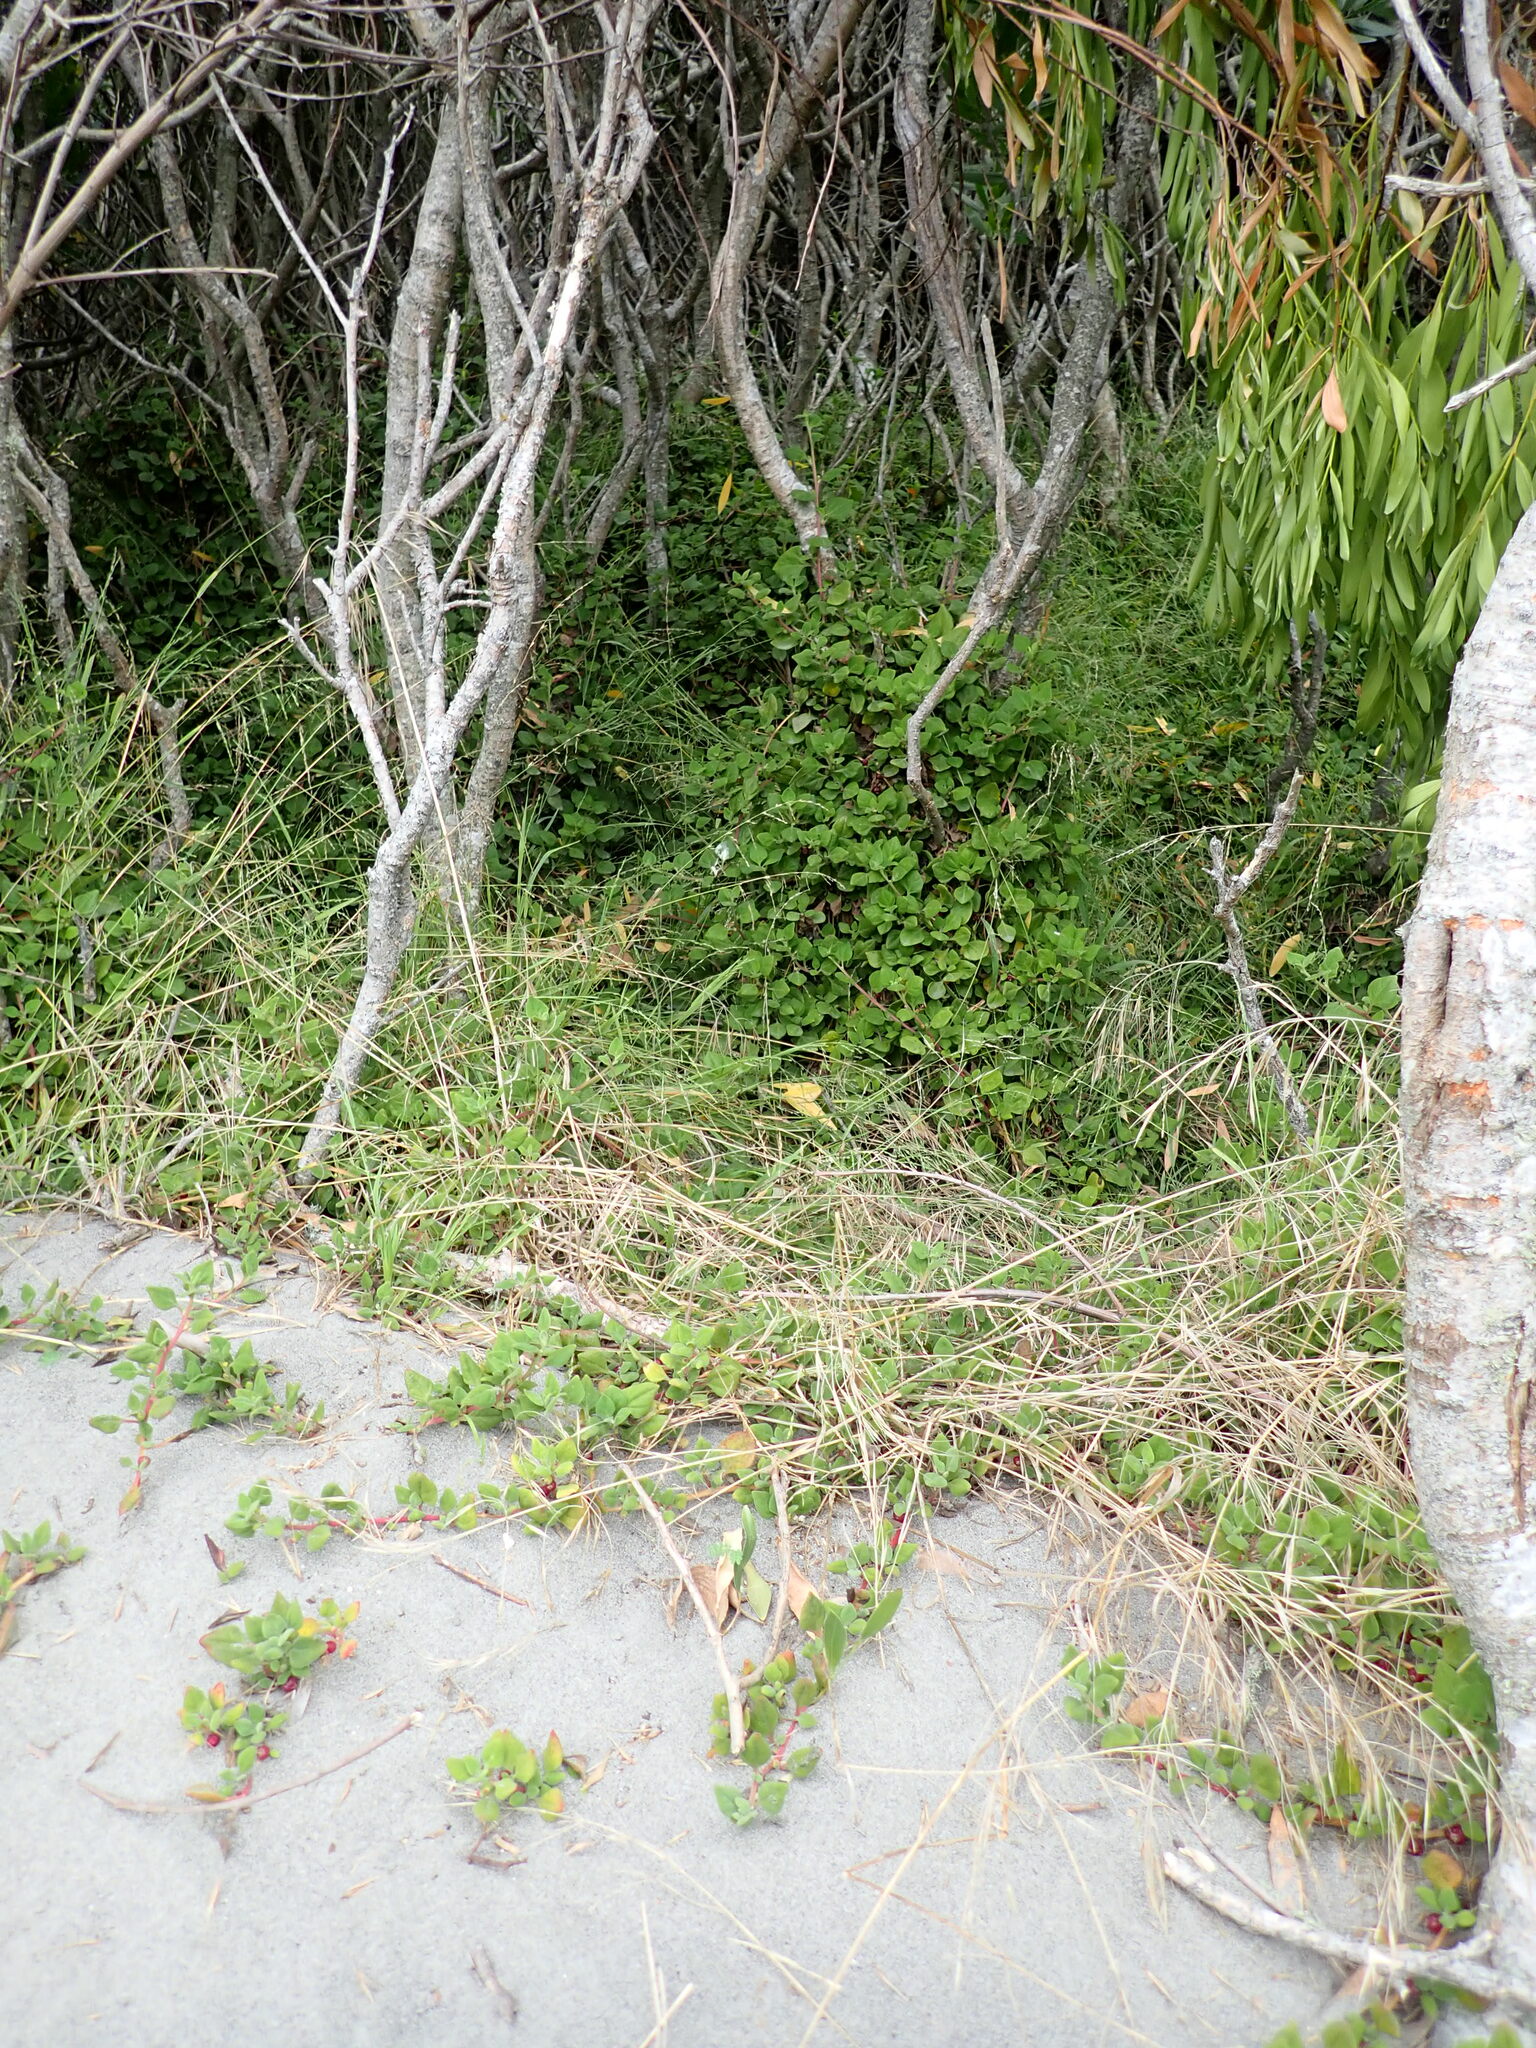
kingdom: Plantae
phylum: Tracheophyta
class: Magnoliopsida
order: Caryophyllales
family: Aizoaceae
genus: Tetragonia
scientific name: Tetragonia implexicoma
